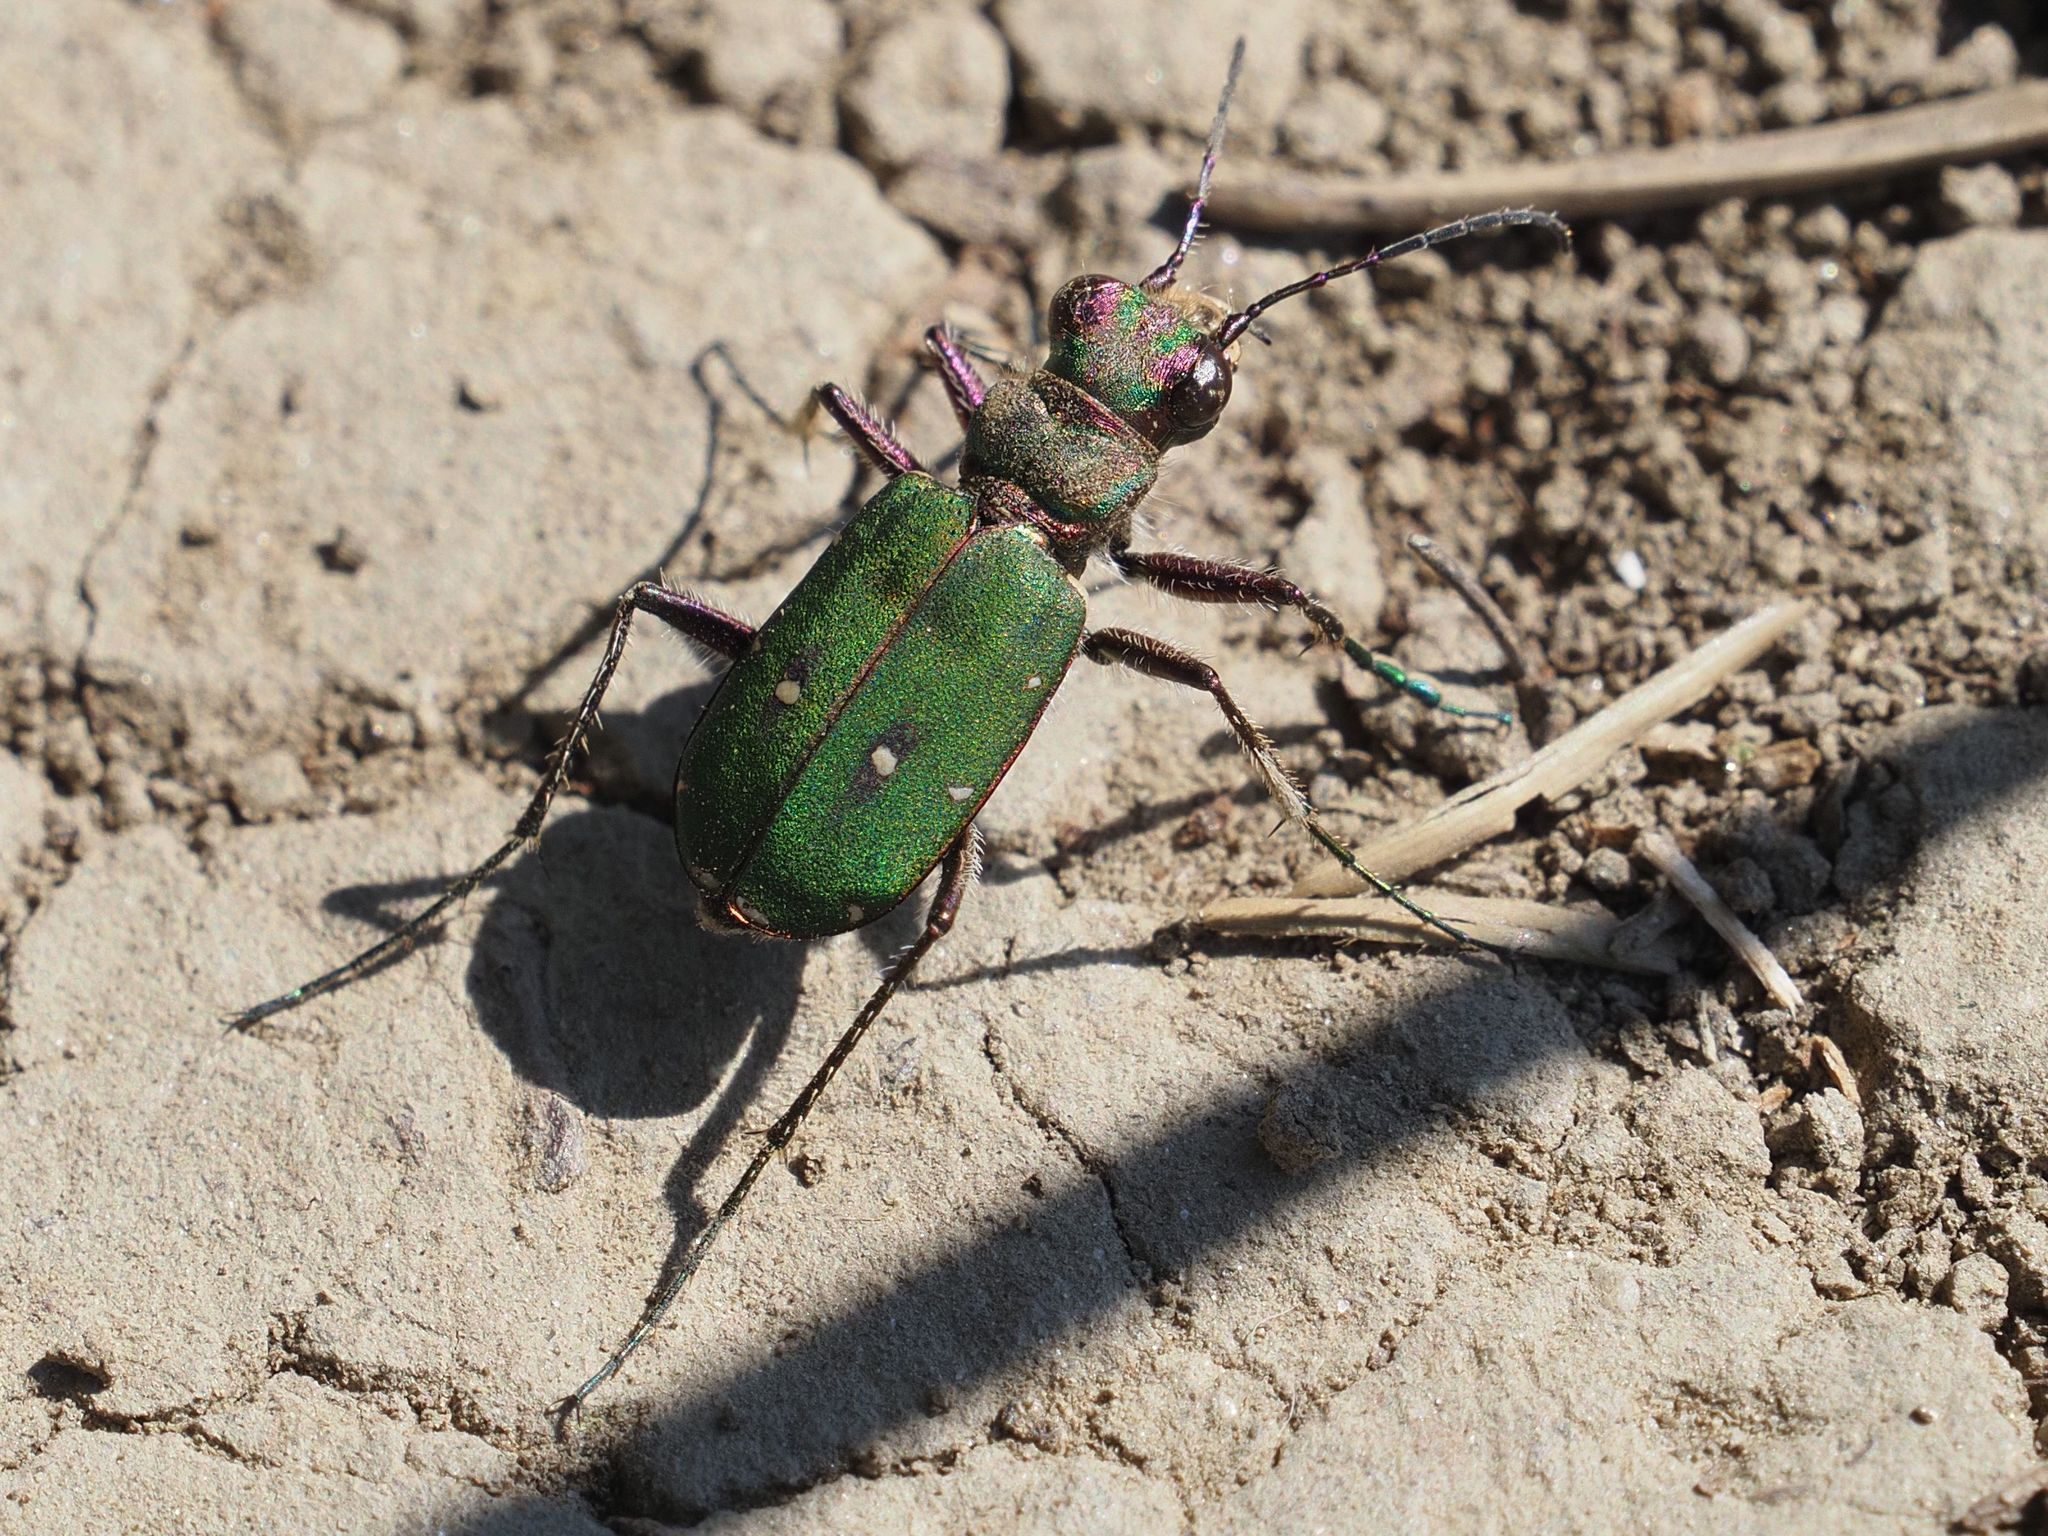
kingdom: Animalia
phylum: Arthropoda
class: Insecta
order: Coleoptera
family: Carabidae
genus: Cicindela
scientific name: Cicindela campestris
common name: Common tiger beetle
